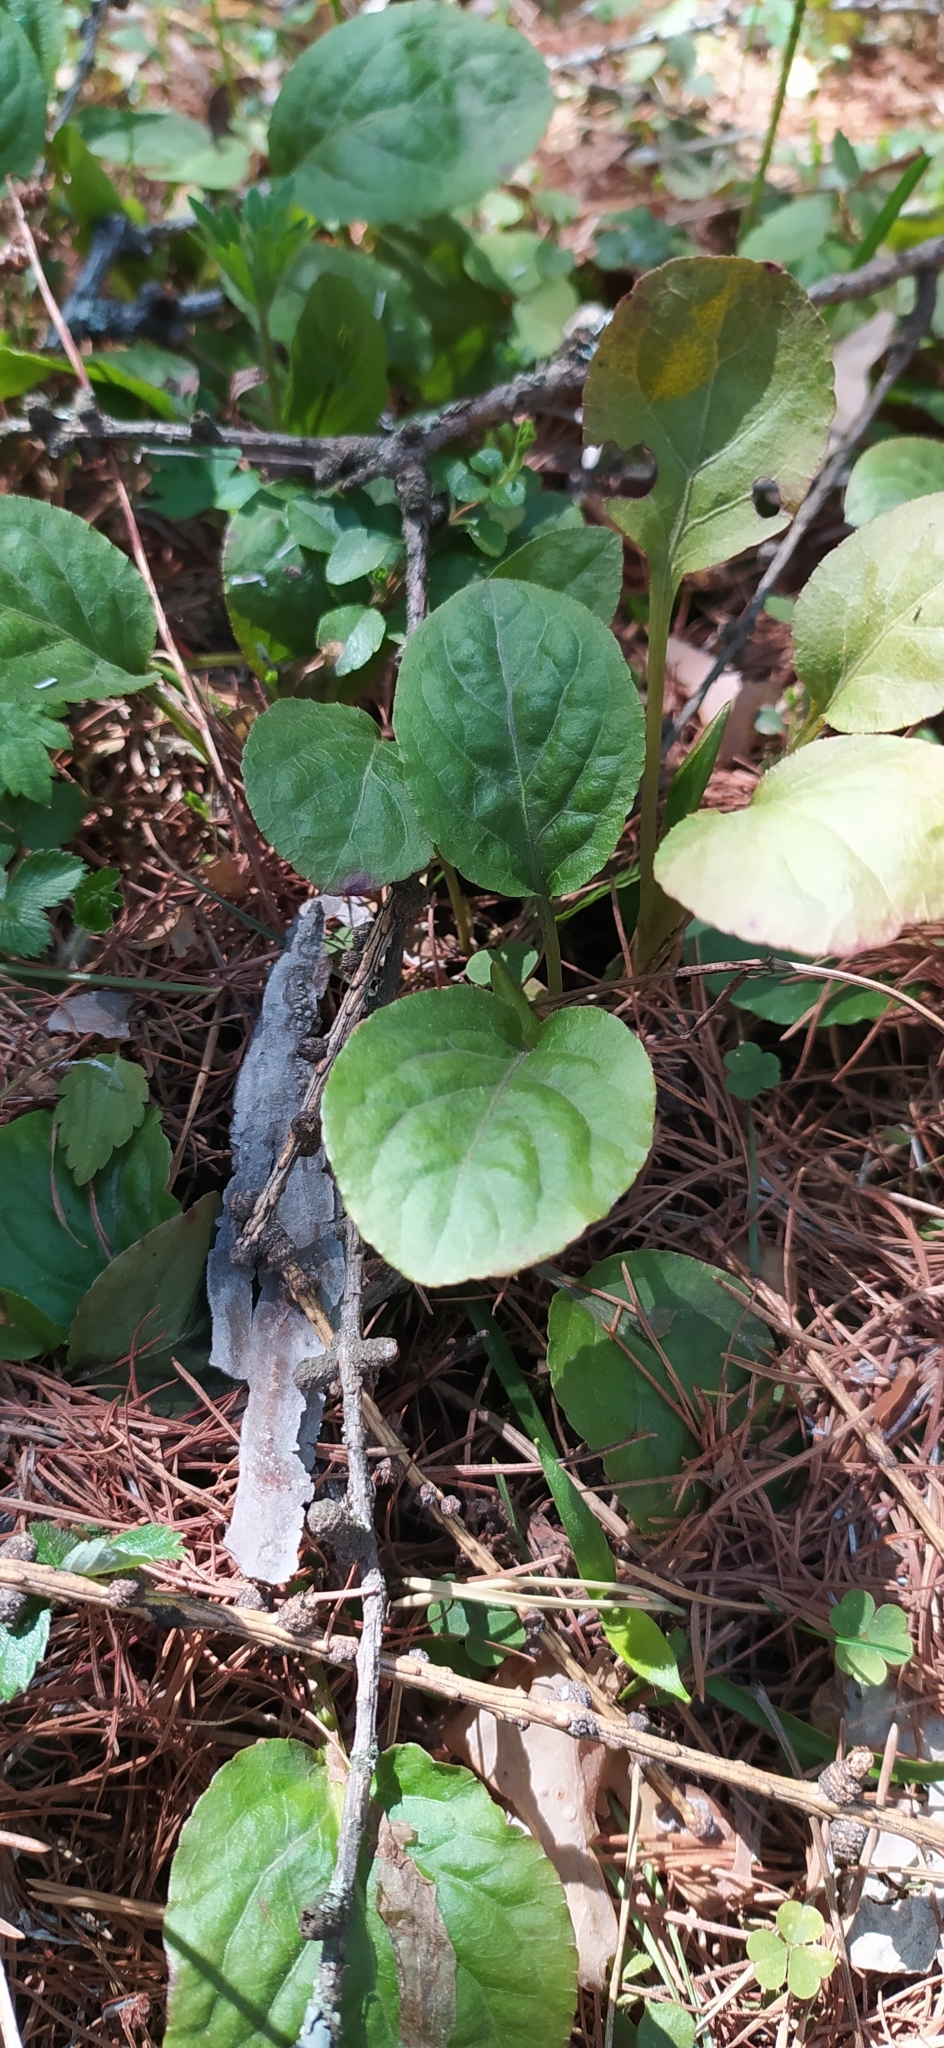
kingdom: Plantae
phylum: Tracheophyta
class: Magnoliopsida
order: Ericales
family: Ericaceae
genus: Pyrola
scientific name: Pyrola minor
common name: Common wintergreen
